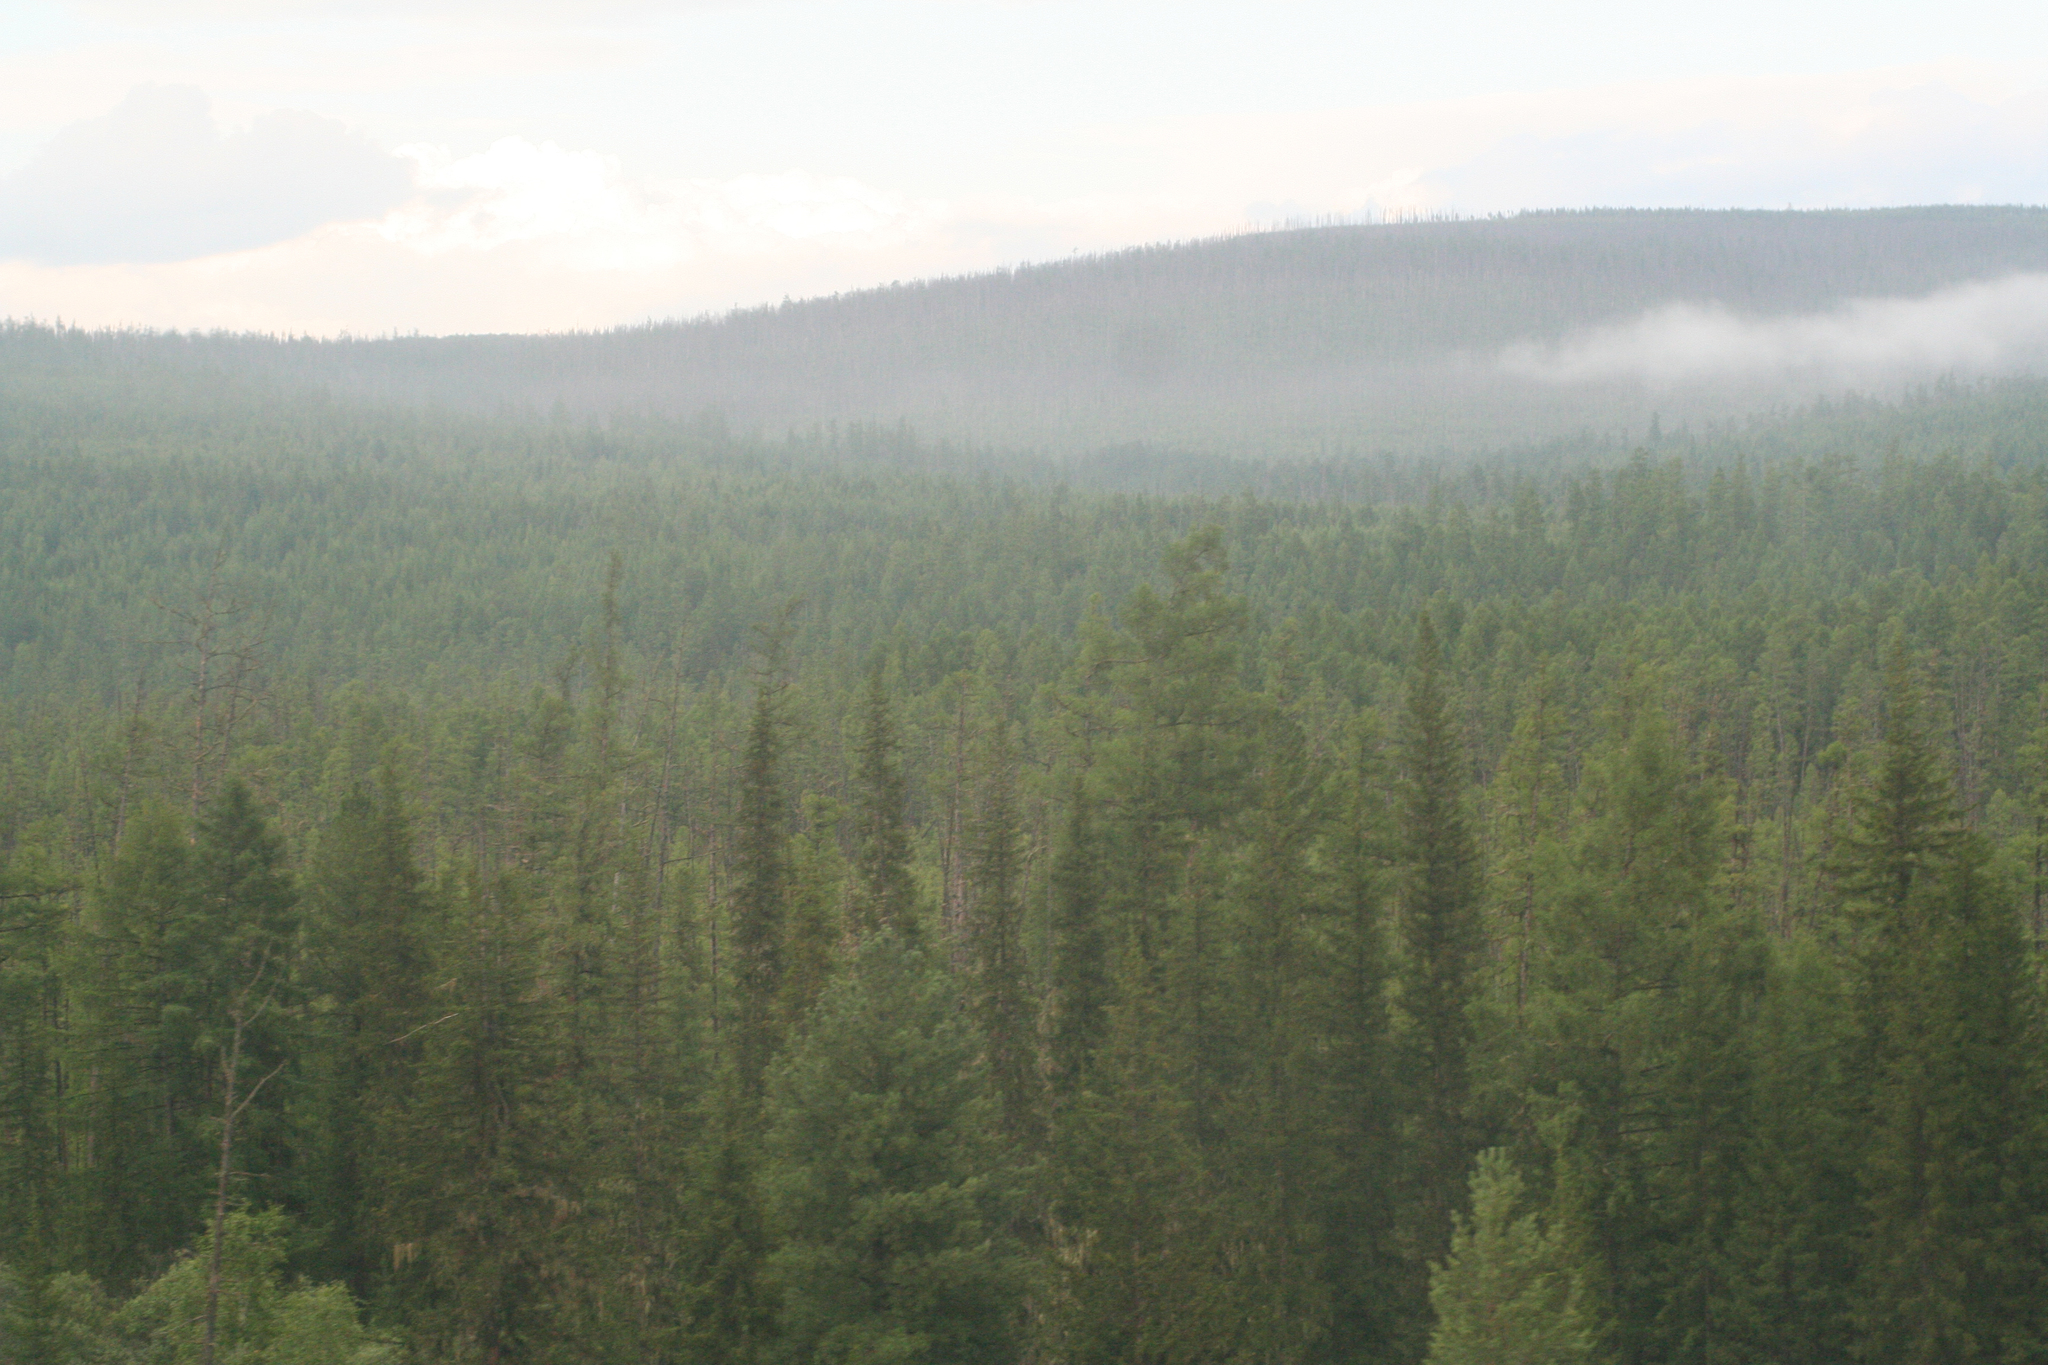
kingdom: Plantae
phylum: Tracheophyta
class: Pinopsida
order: Pinales
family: Pinaceae
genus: Picea
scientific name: Picea obovata
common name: Siberian spruce
